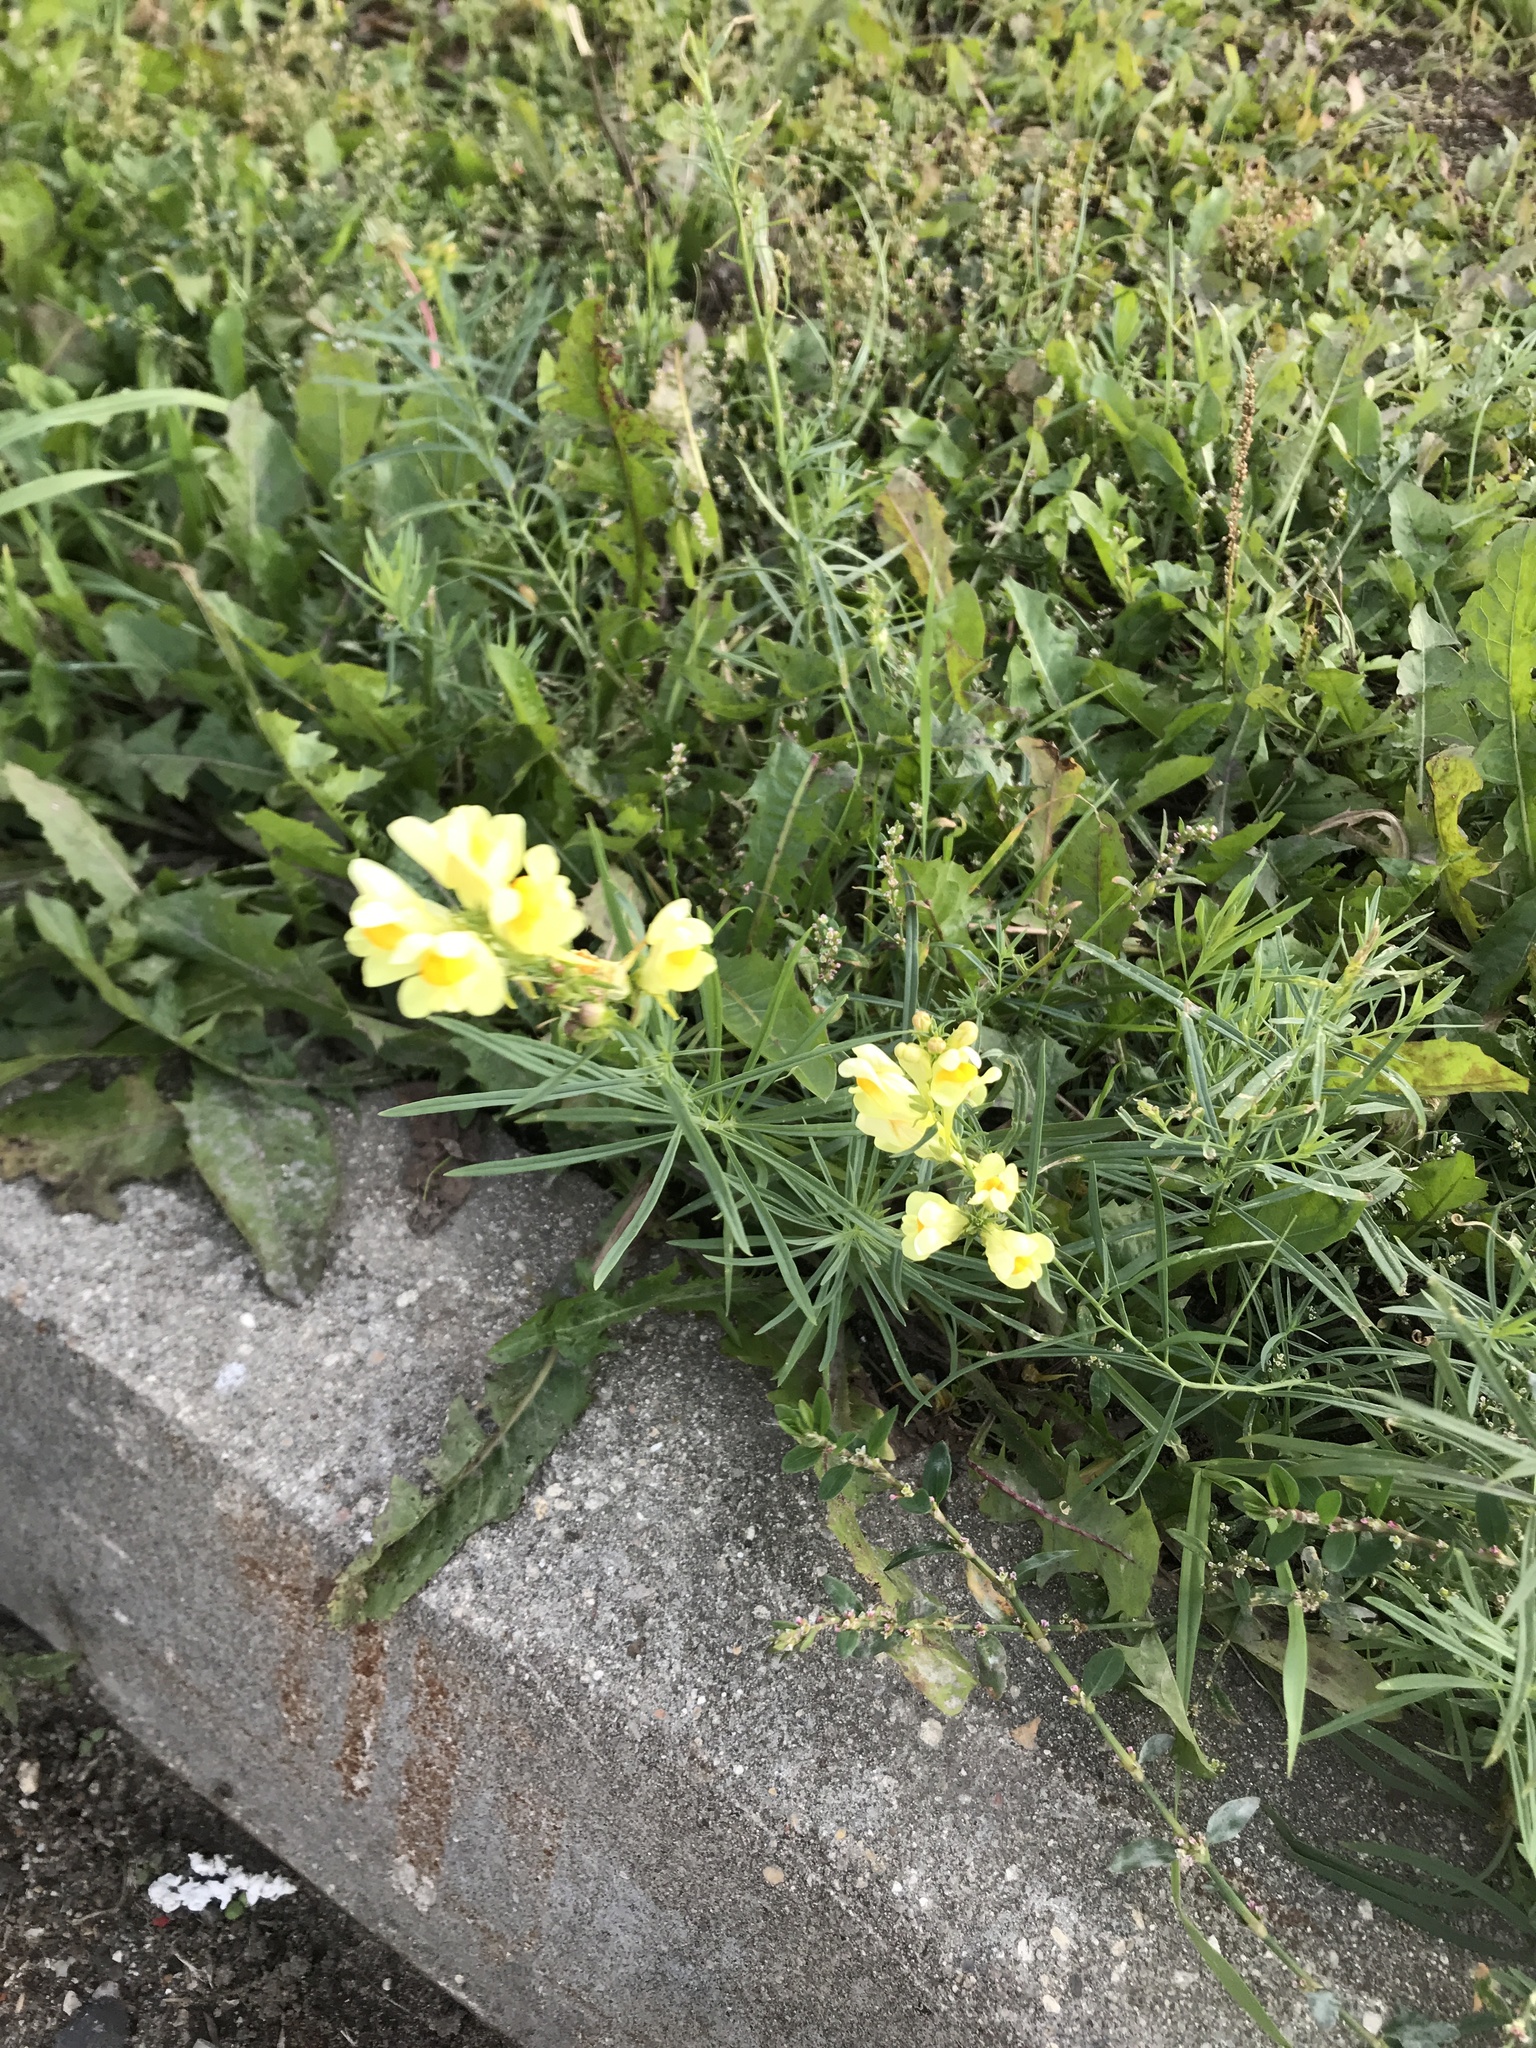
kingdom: Plantae
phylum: Tracheophyta
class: Magnoliopsida
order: Lamiales
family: Plantaginaceae
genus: Linaria
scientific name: Linaria vulgaris
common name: Butter and eggs
